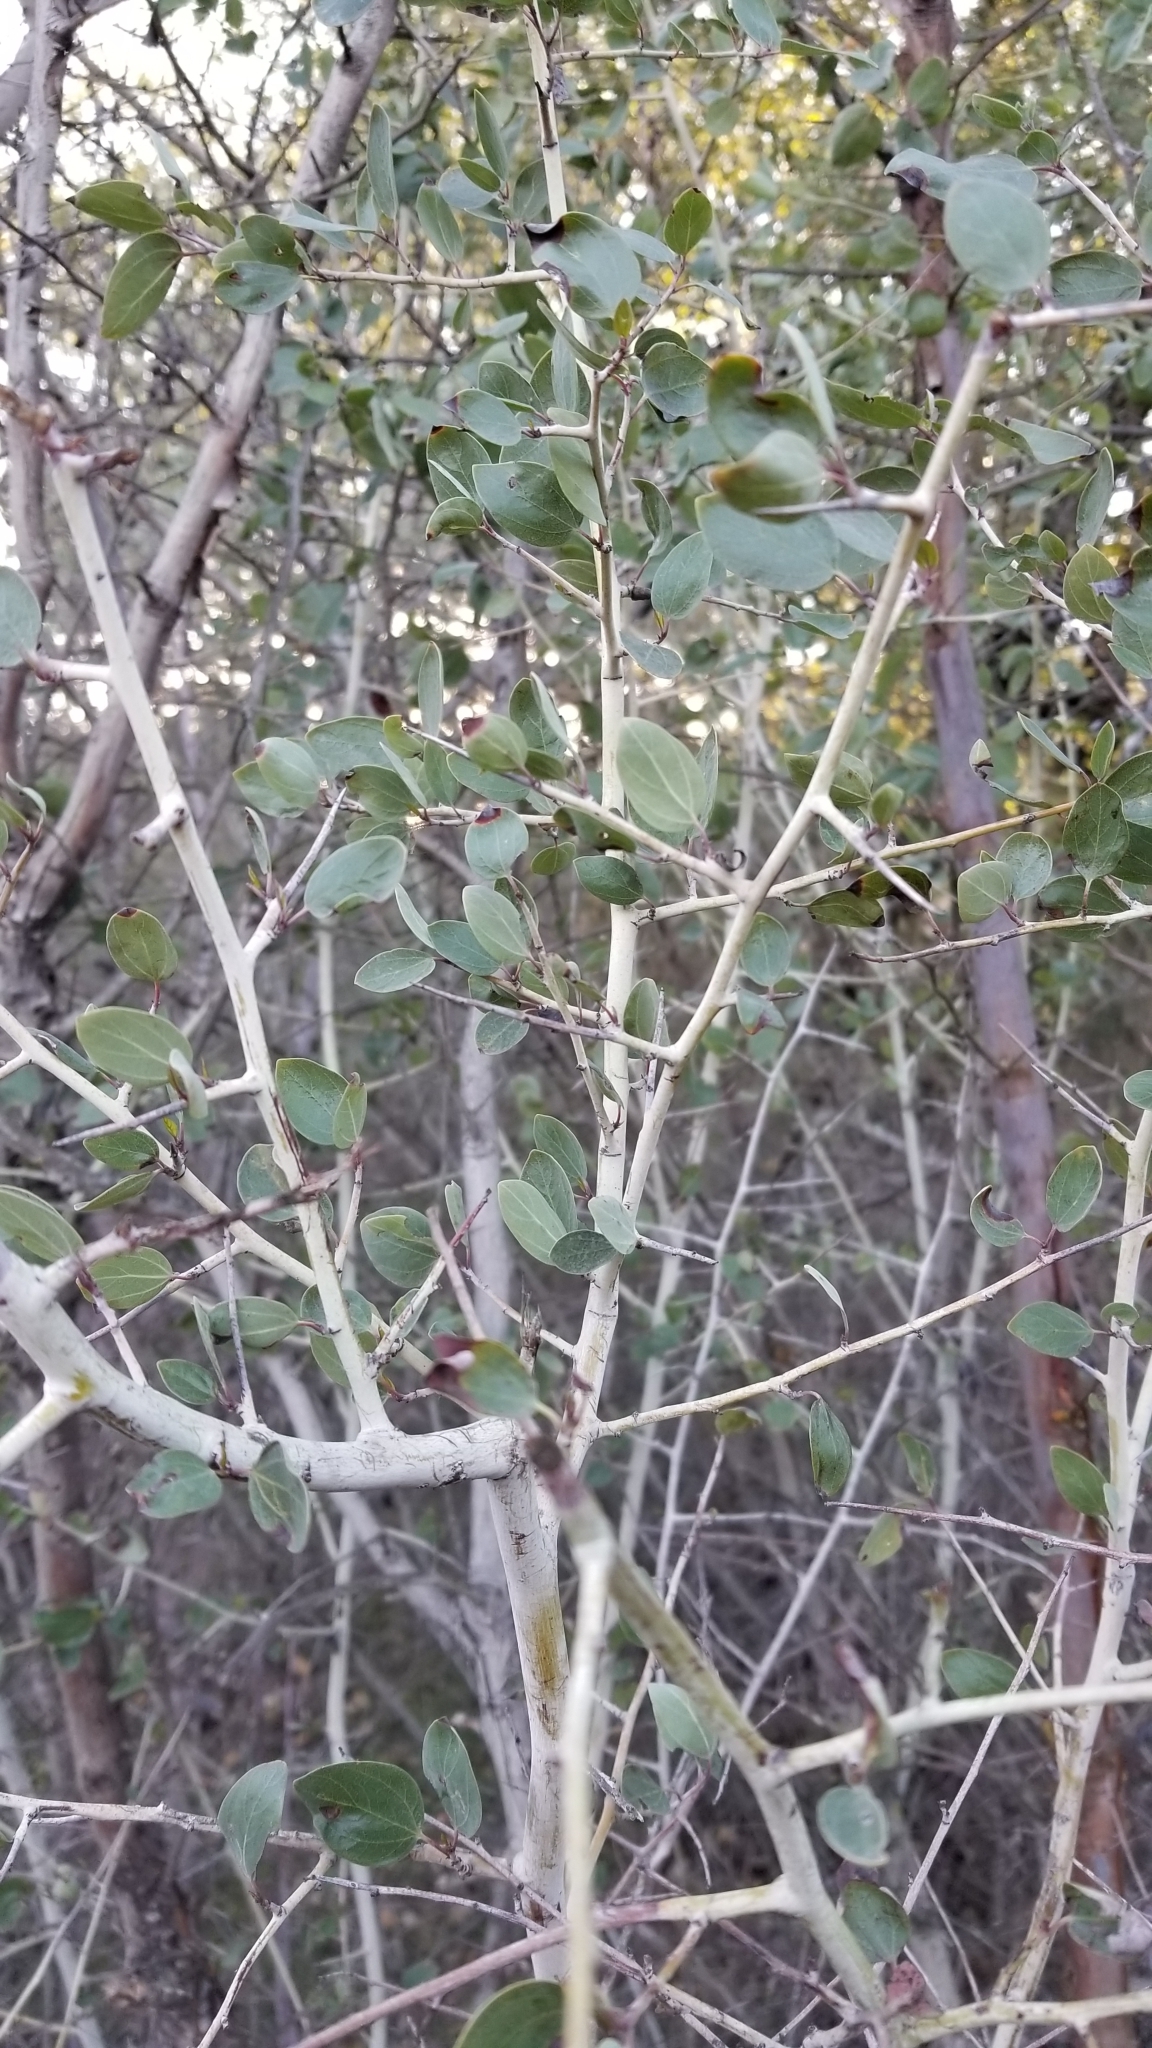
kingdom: Plantae
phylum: Tracheophyta
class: Magnoliopsida
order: Rosales
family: Rhamnaceae
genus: Ceanothus
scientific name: Ceanothus leucodermis
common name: Chaparral whitethorn
